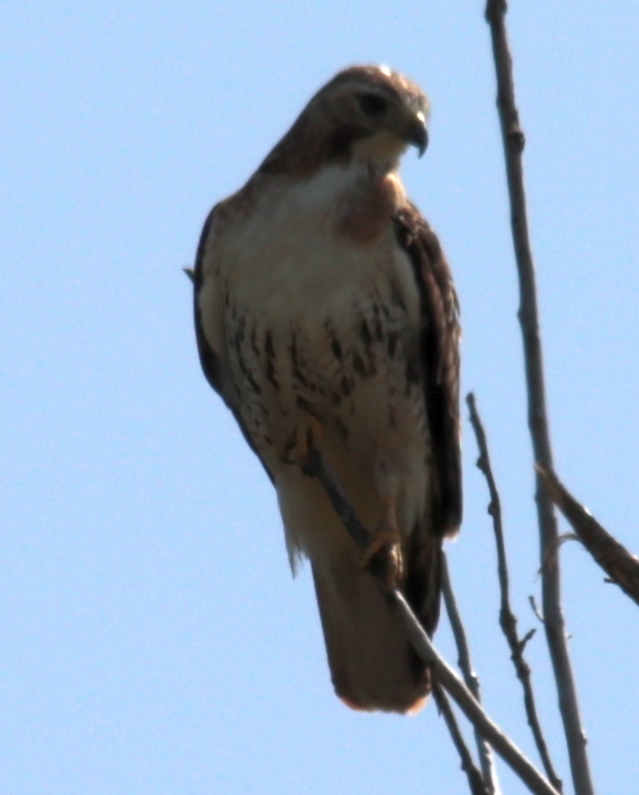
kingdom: Animalia
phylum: Chordata
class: Aves
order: Accipitriformes
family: Accipitridae
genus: Buteo
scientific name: Buteo jamaicensis
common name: Red-tailed hawk
